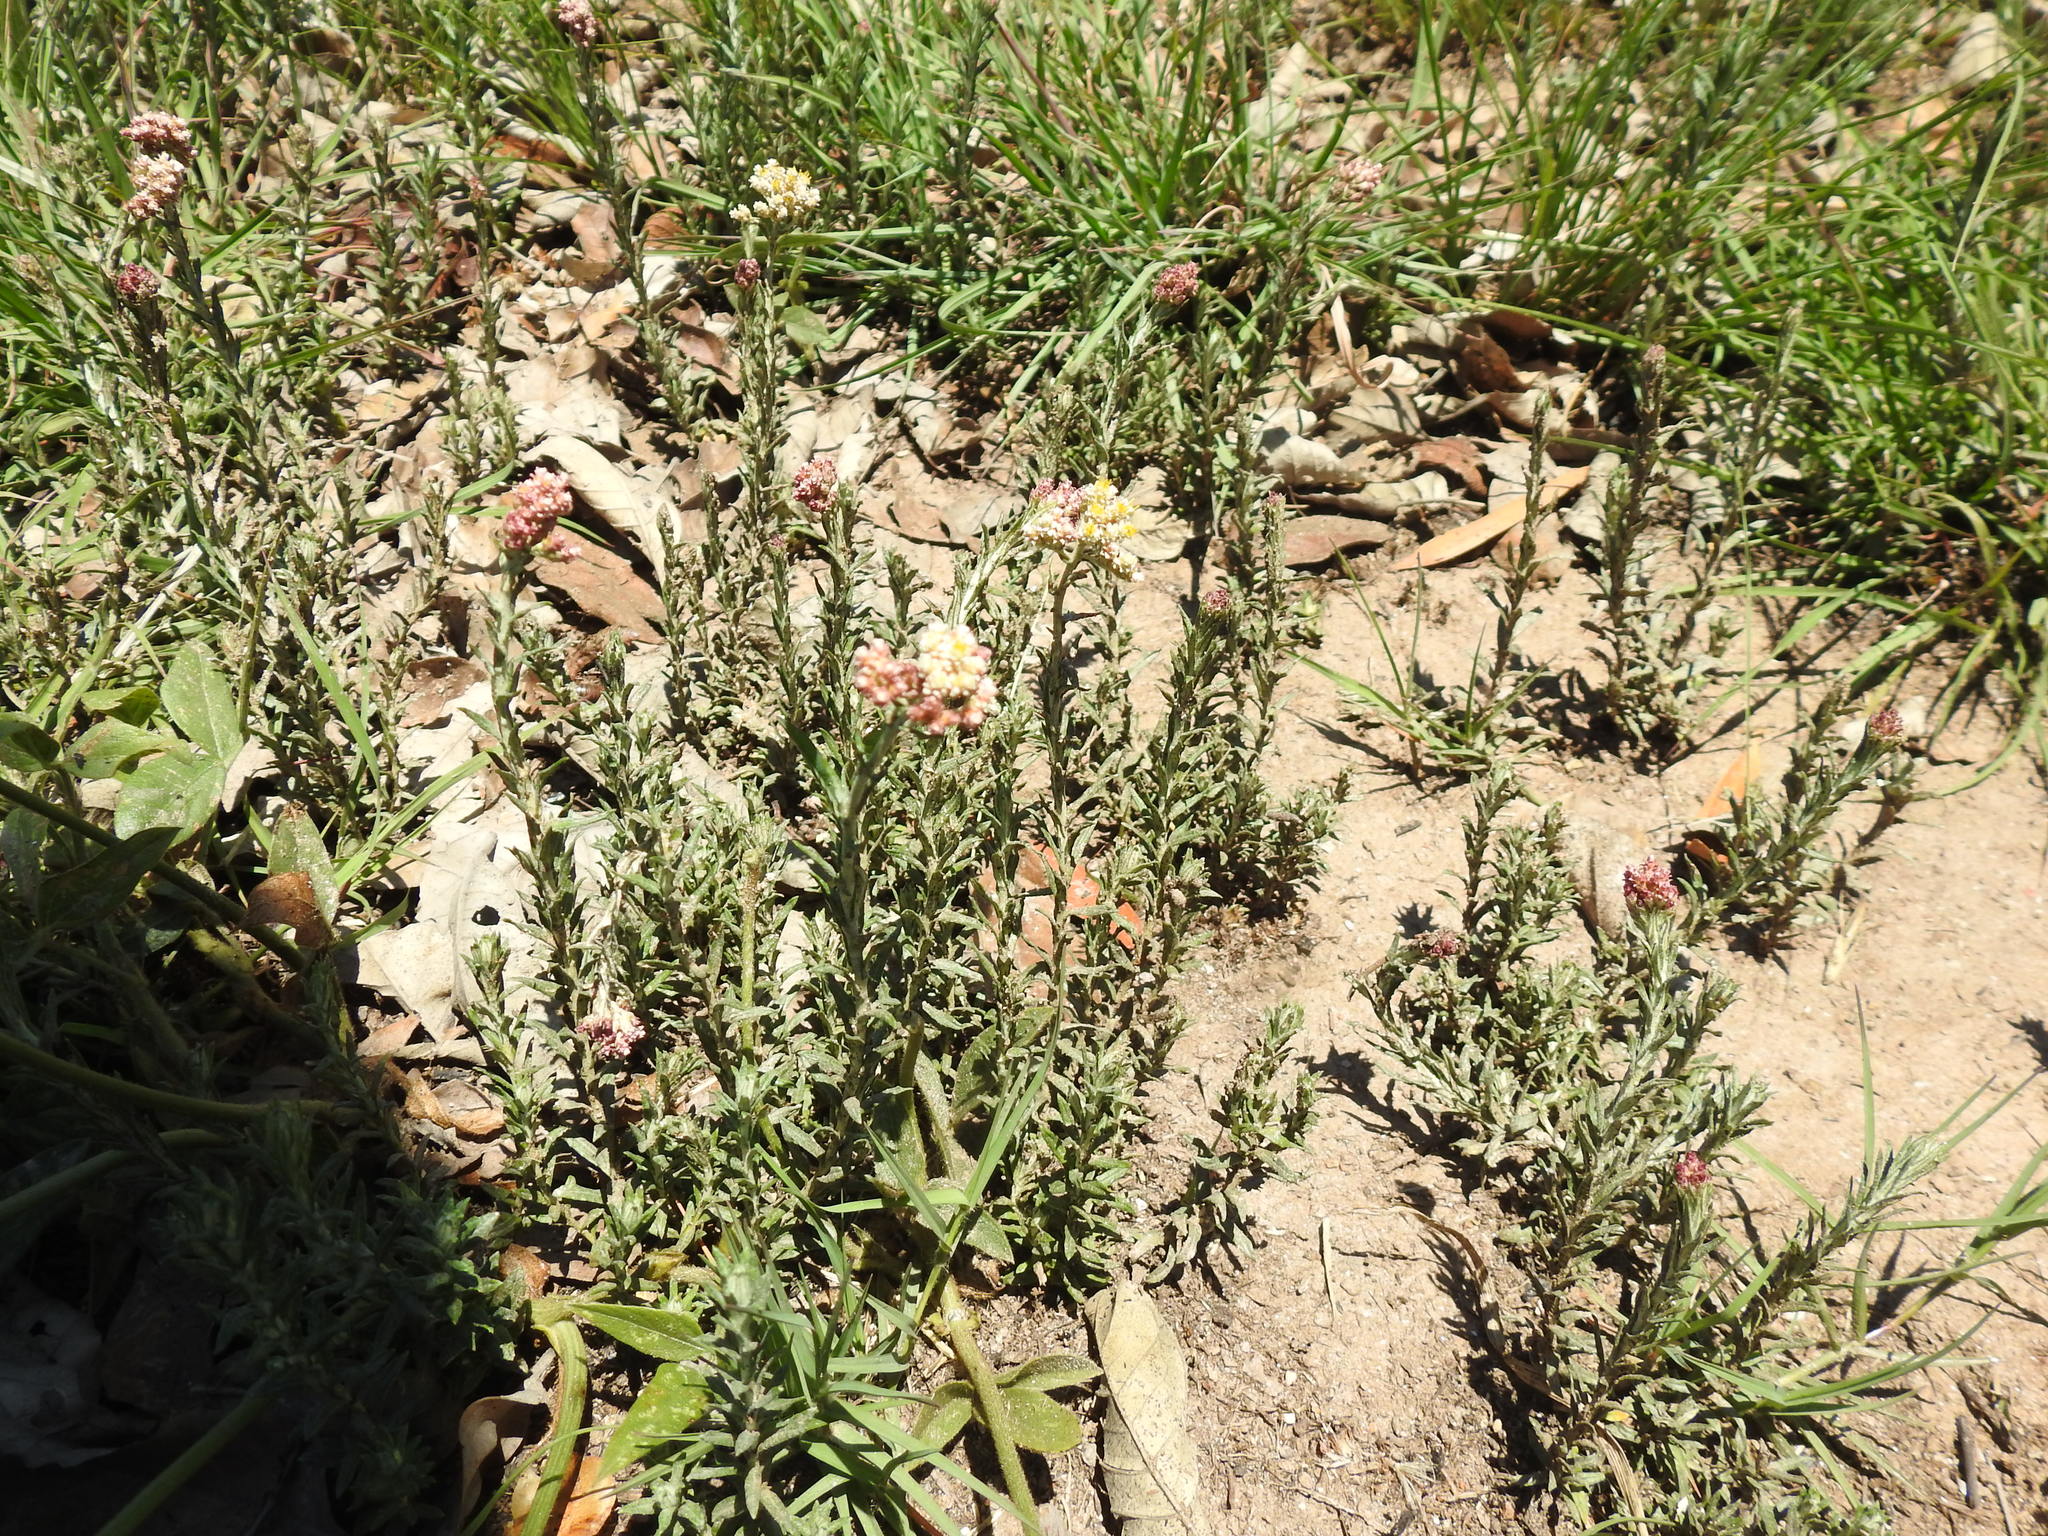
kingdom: Plantae
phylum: Tracheophyta
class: Magnoliopsida
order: Asterales
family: Asteraceae
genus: Helichrysum
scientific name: Helichrysum rugulosum
